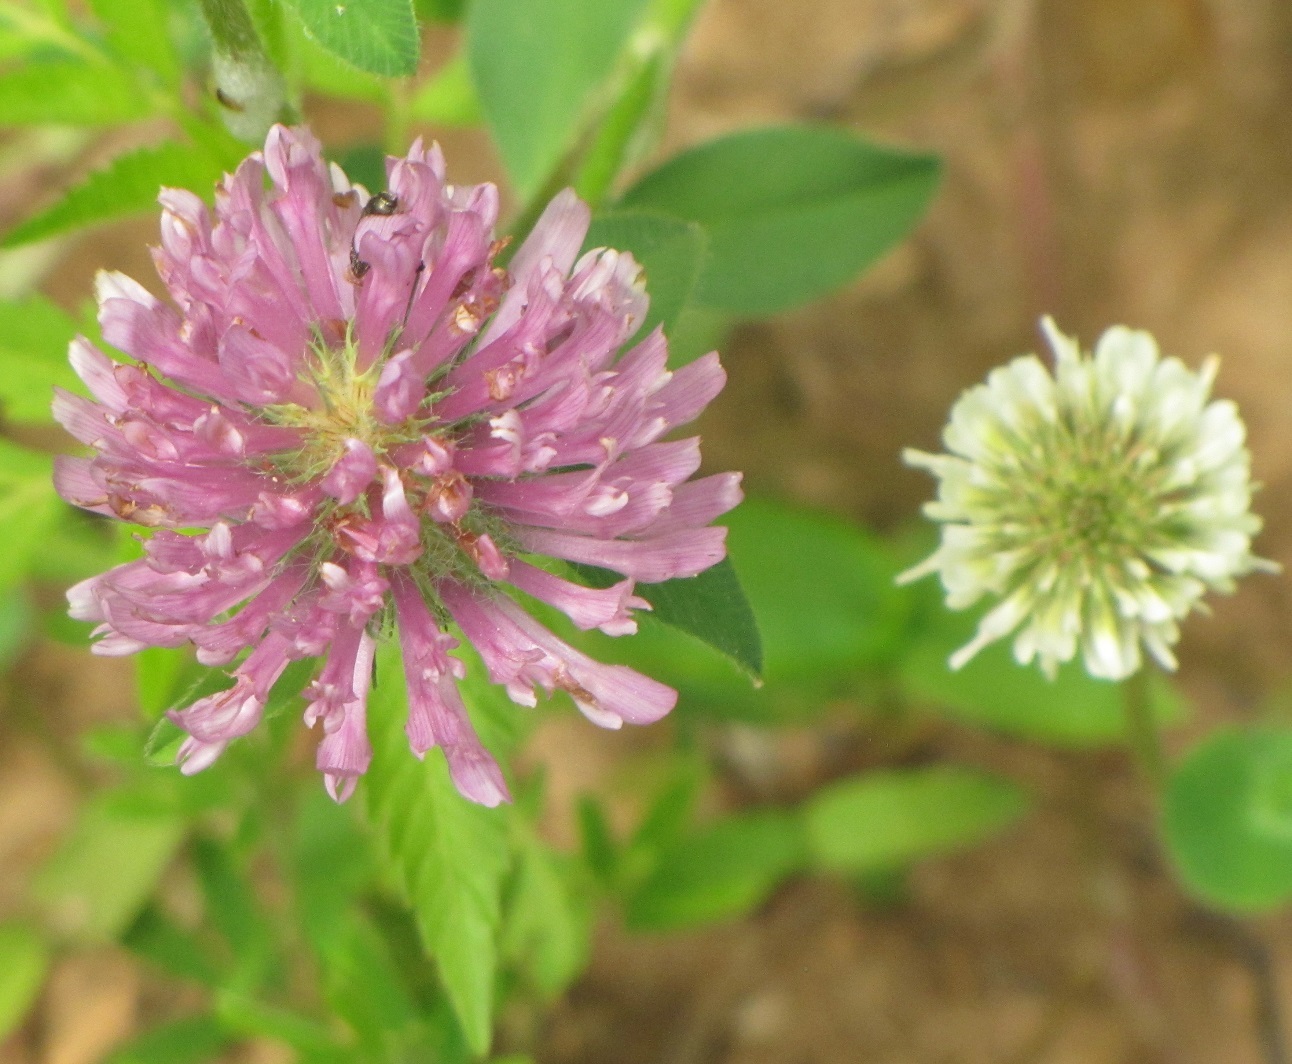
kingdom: Plantae
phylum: Tracheophyta
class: Magnoliopsida
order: Fabales
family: Fabaceae
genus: Trifolium
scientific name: Trifolium pratense
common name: Red clover
